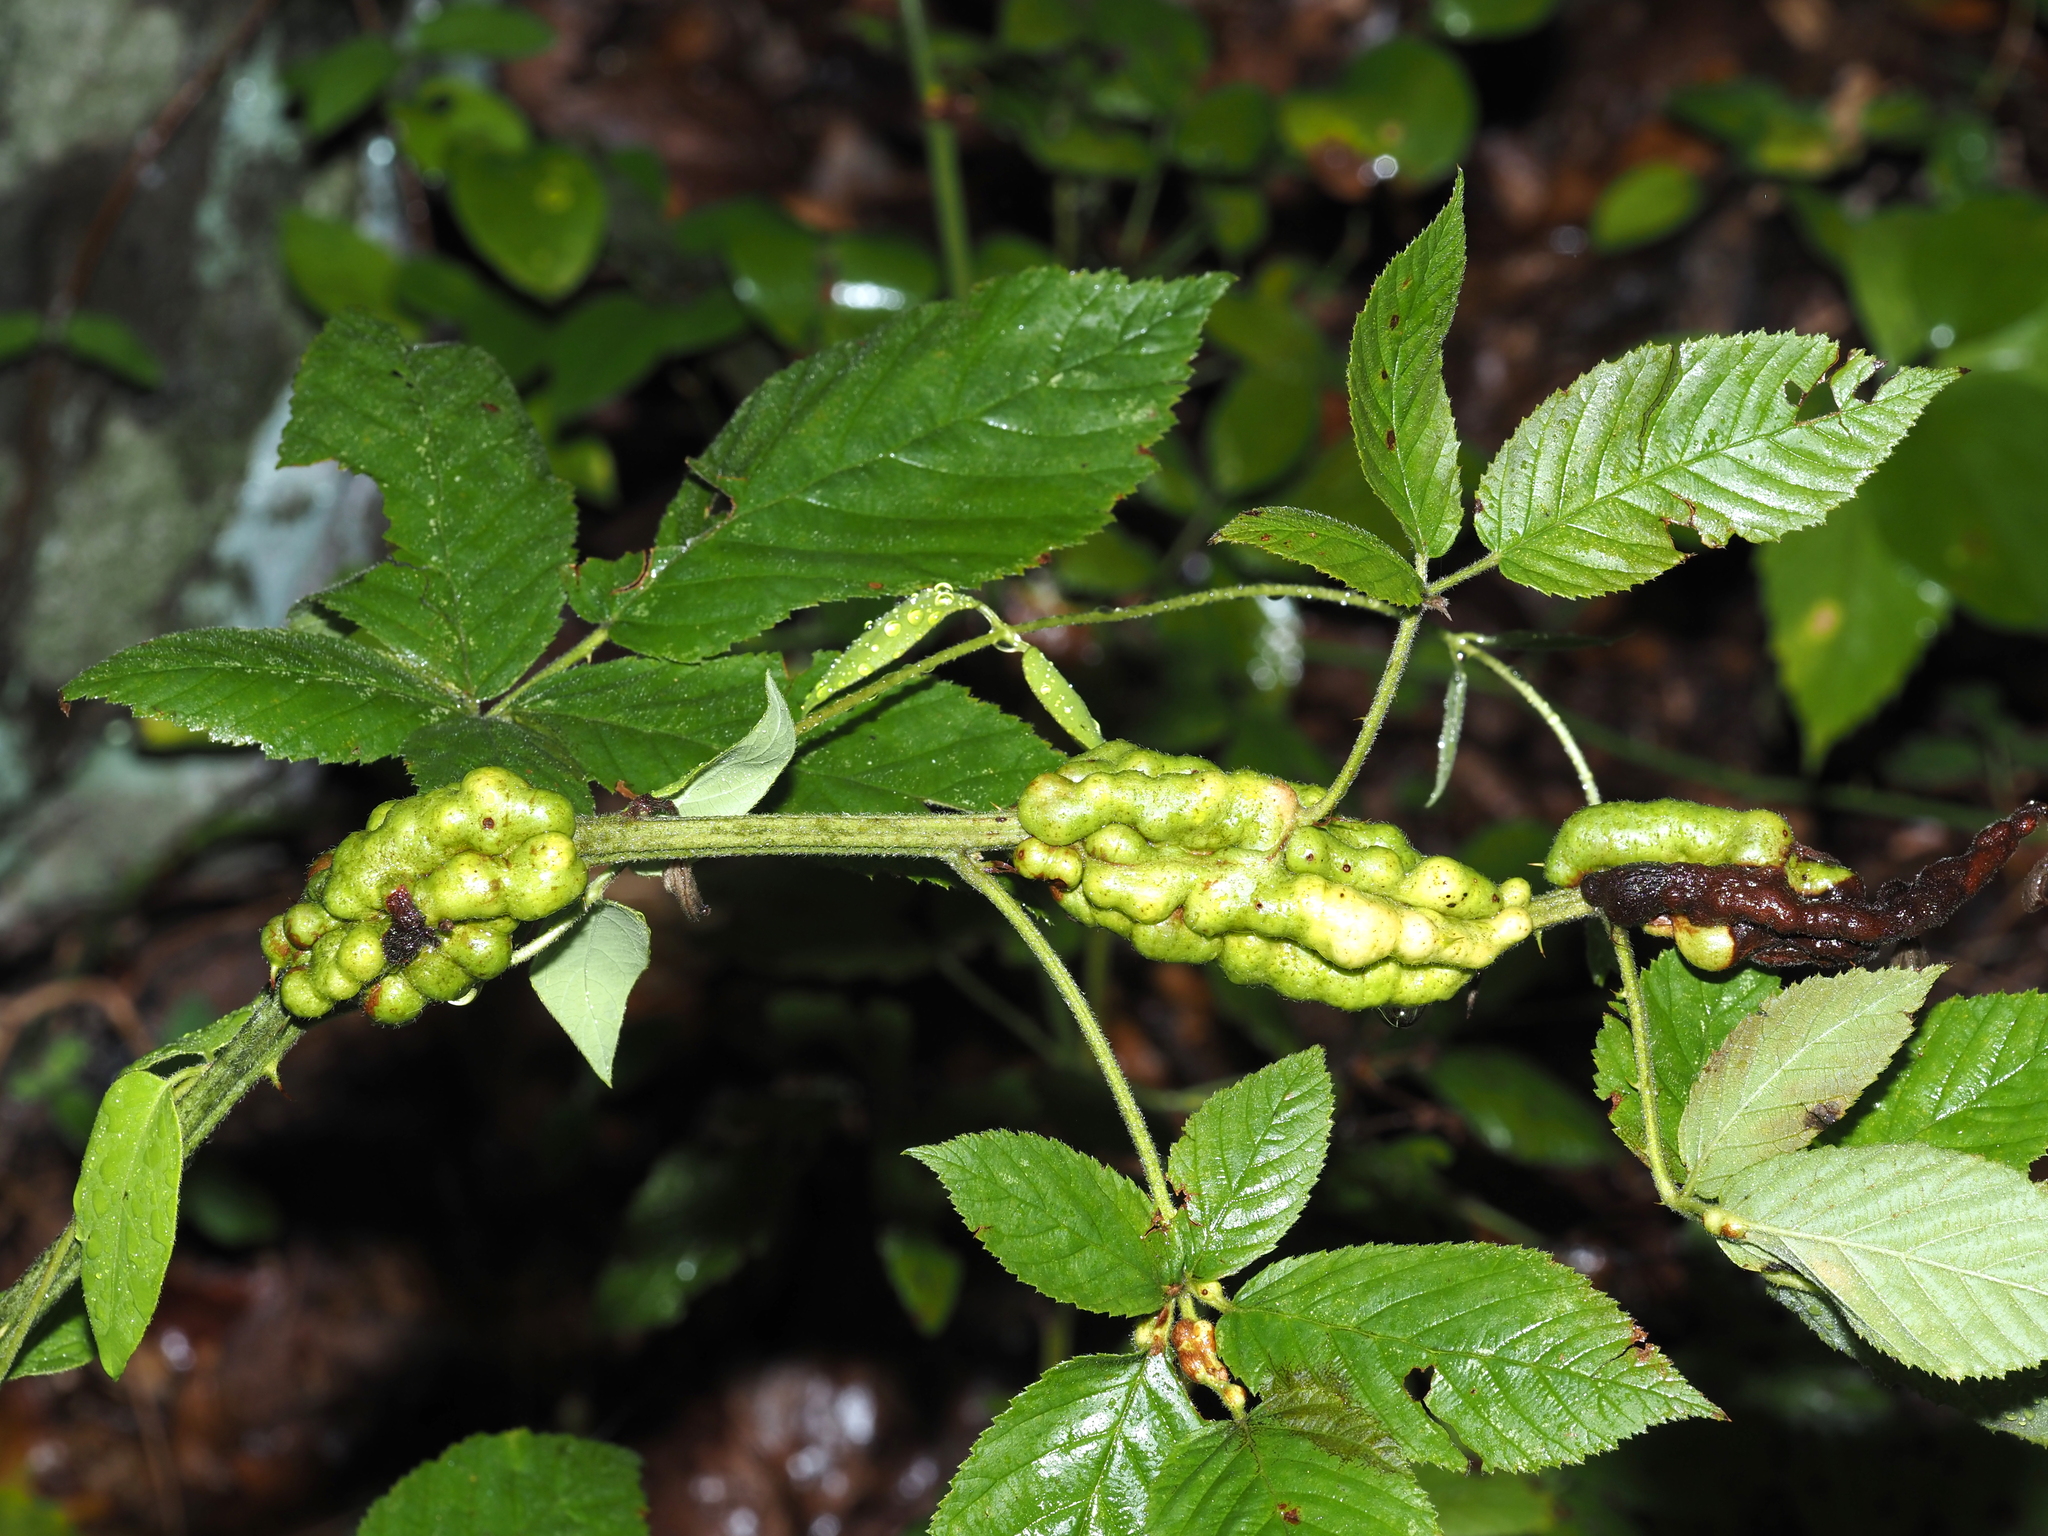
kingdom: Animalia
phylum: Arthropoda
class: Insecta
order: Hymenoptera
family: Cynipidae
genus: Diastrophus
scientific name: Diastrophus
